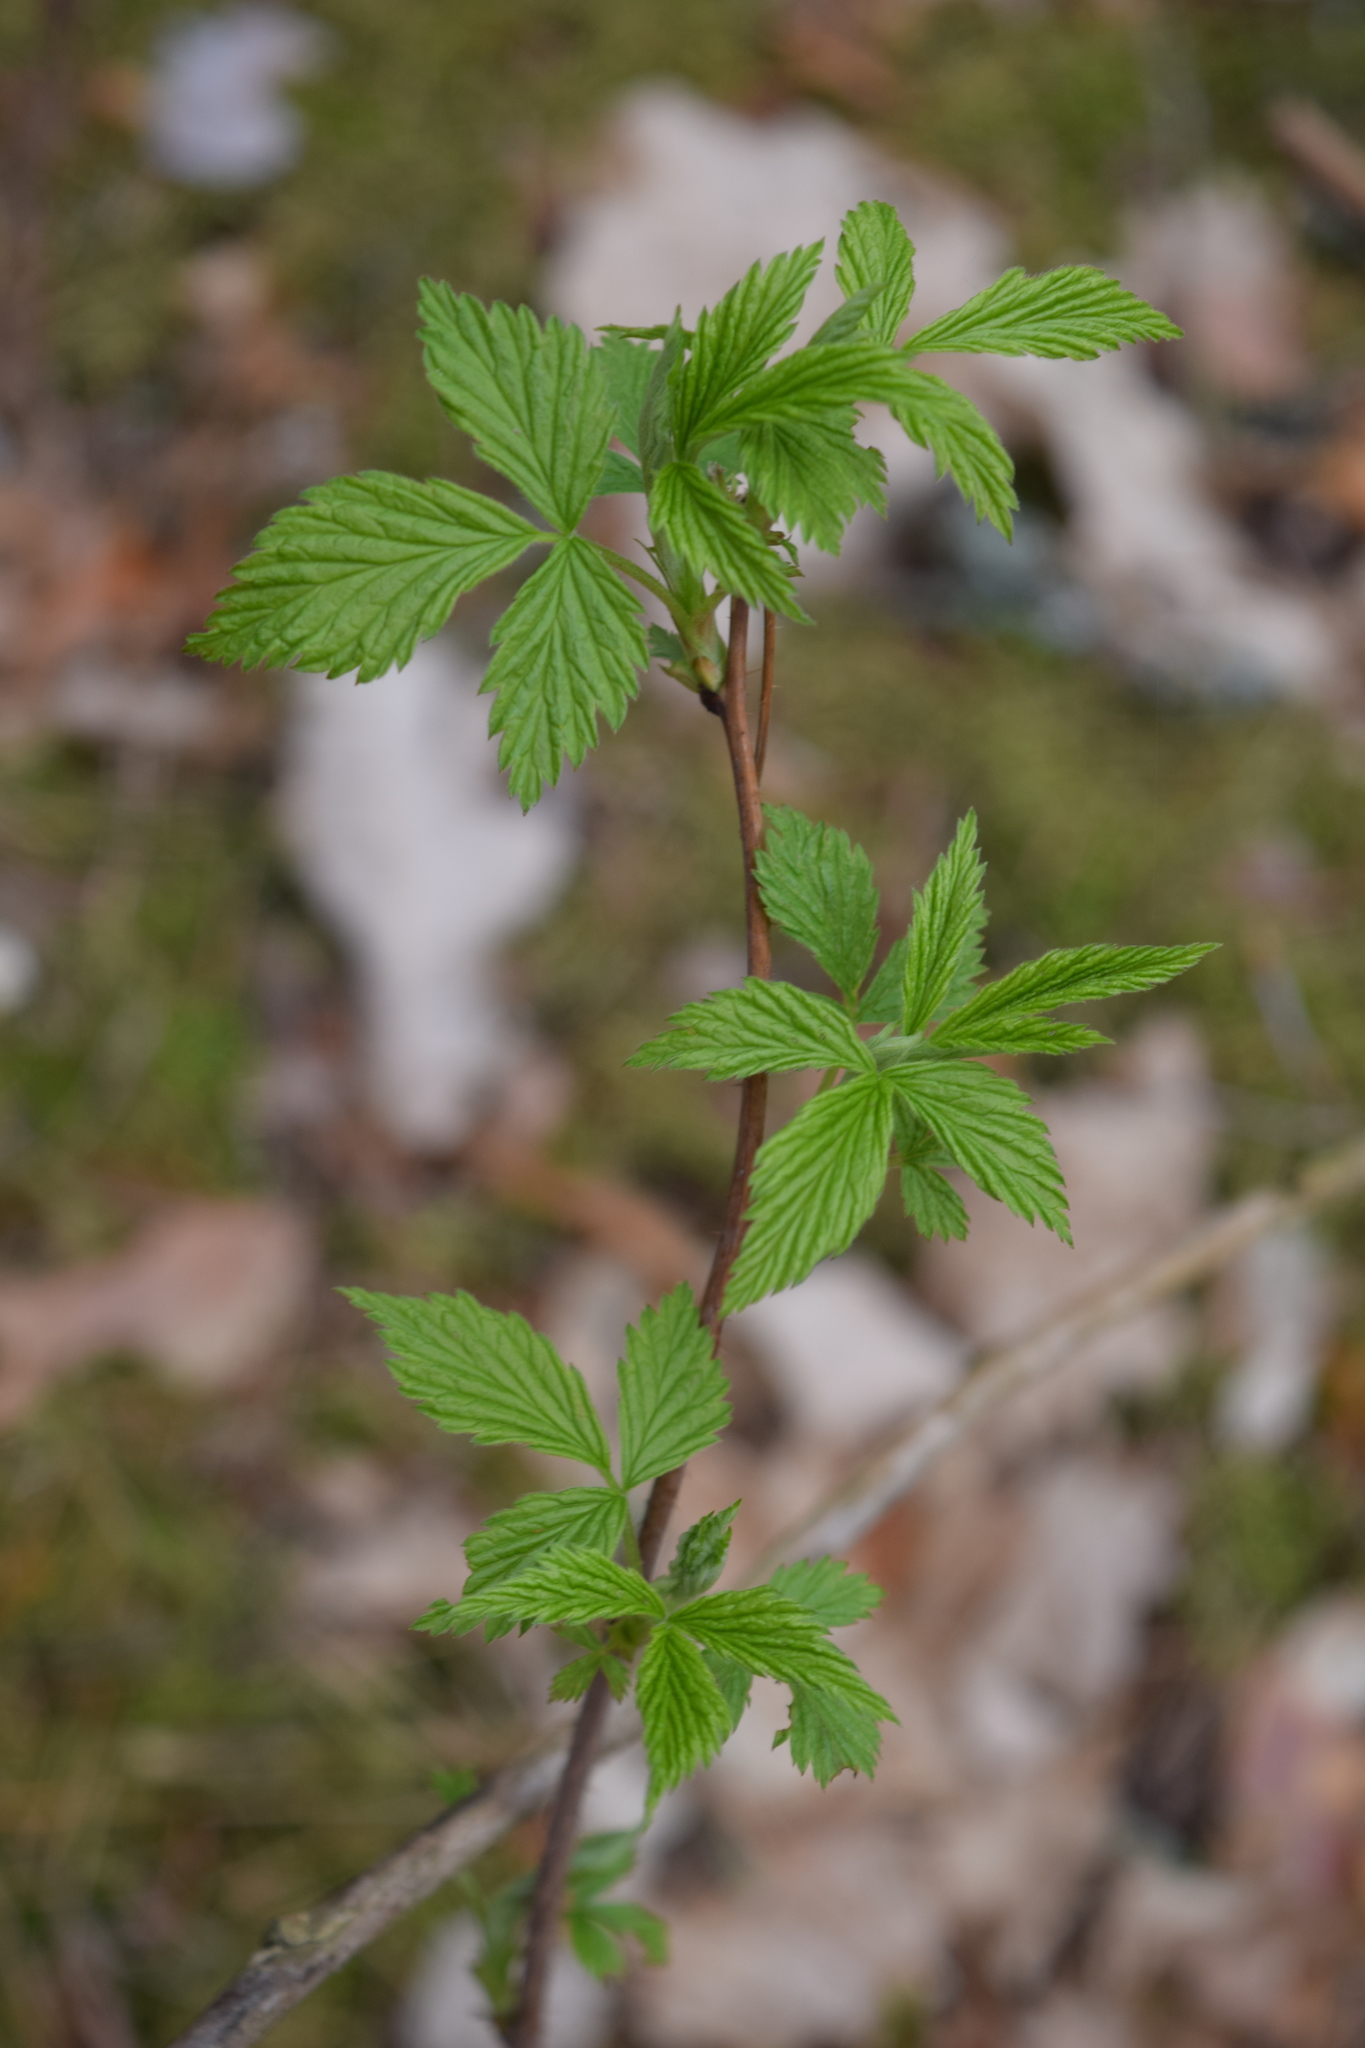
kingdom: Plantae
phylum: Tracheophyta
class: Magnoliopsida
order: Rosales
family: Rosaceae
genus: Rubus
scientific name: Rubus idaeus
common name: Raspberry
